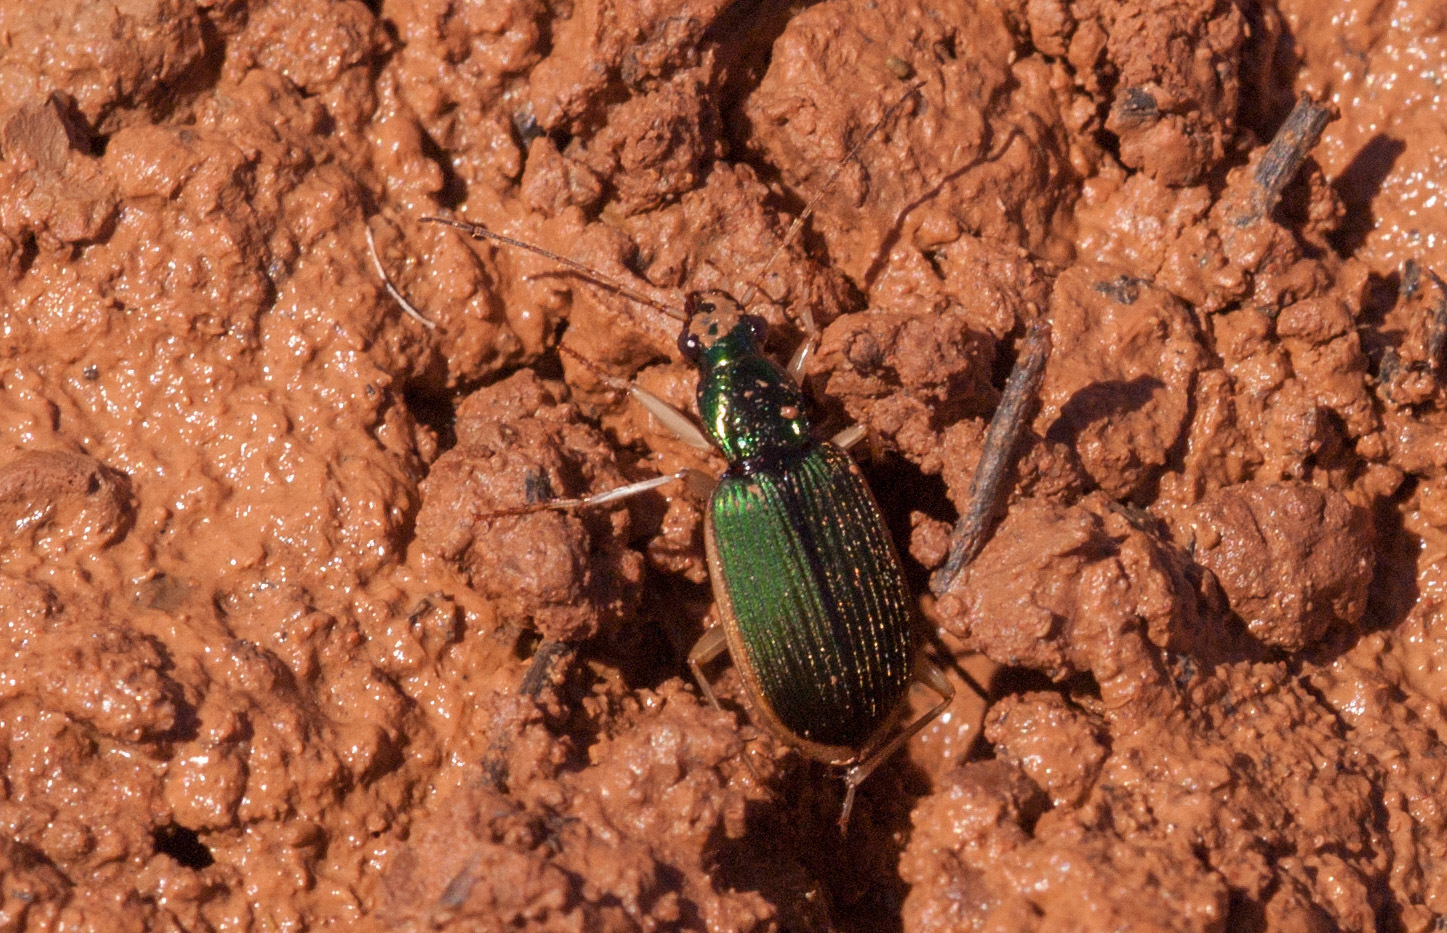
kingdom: Animalia
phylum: Arthropoda
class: Insecta
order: Coleoptera
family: Carabidae
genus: Chlaenius
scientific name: Chlaenius darlingensis
